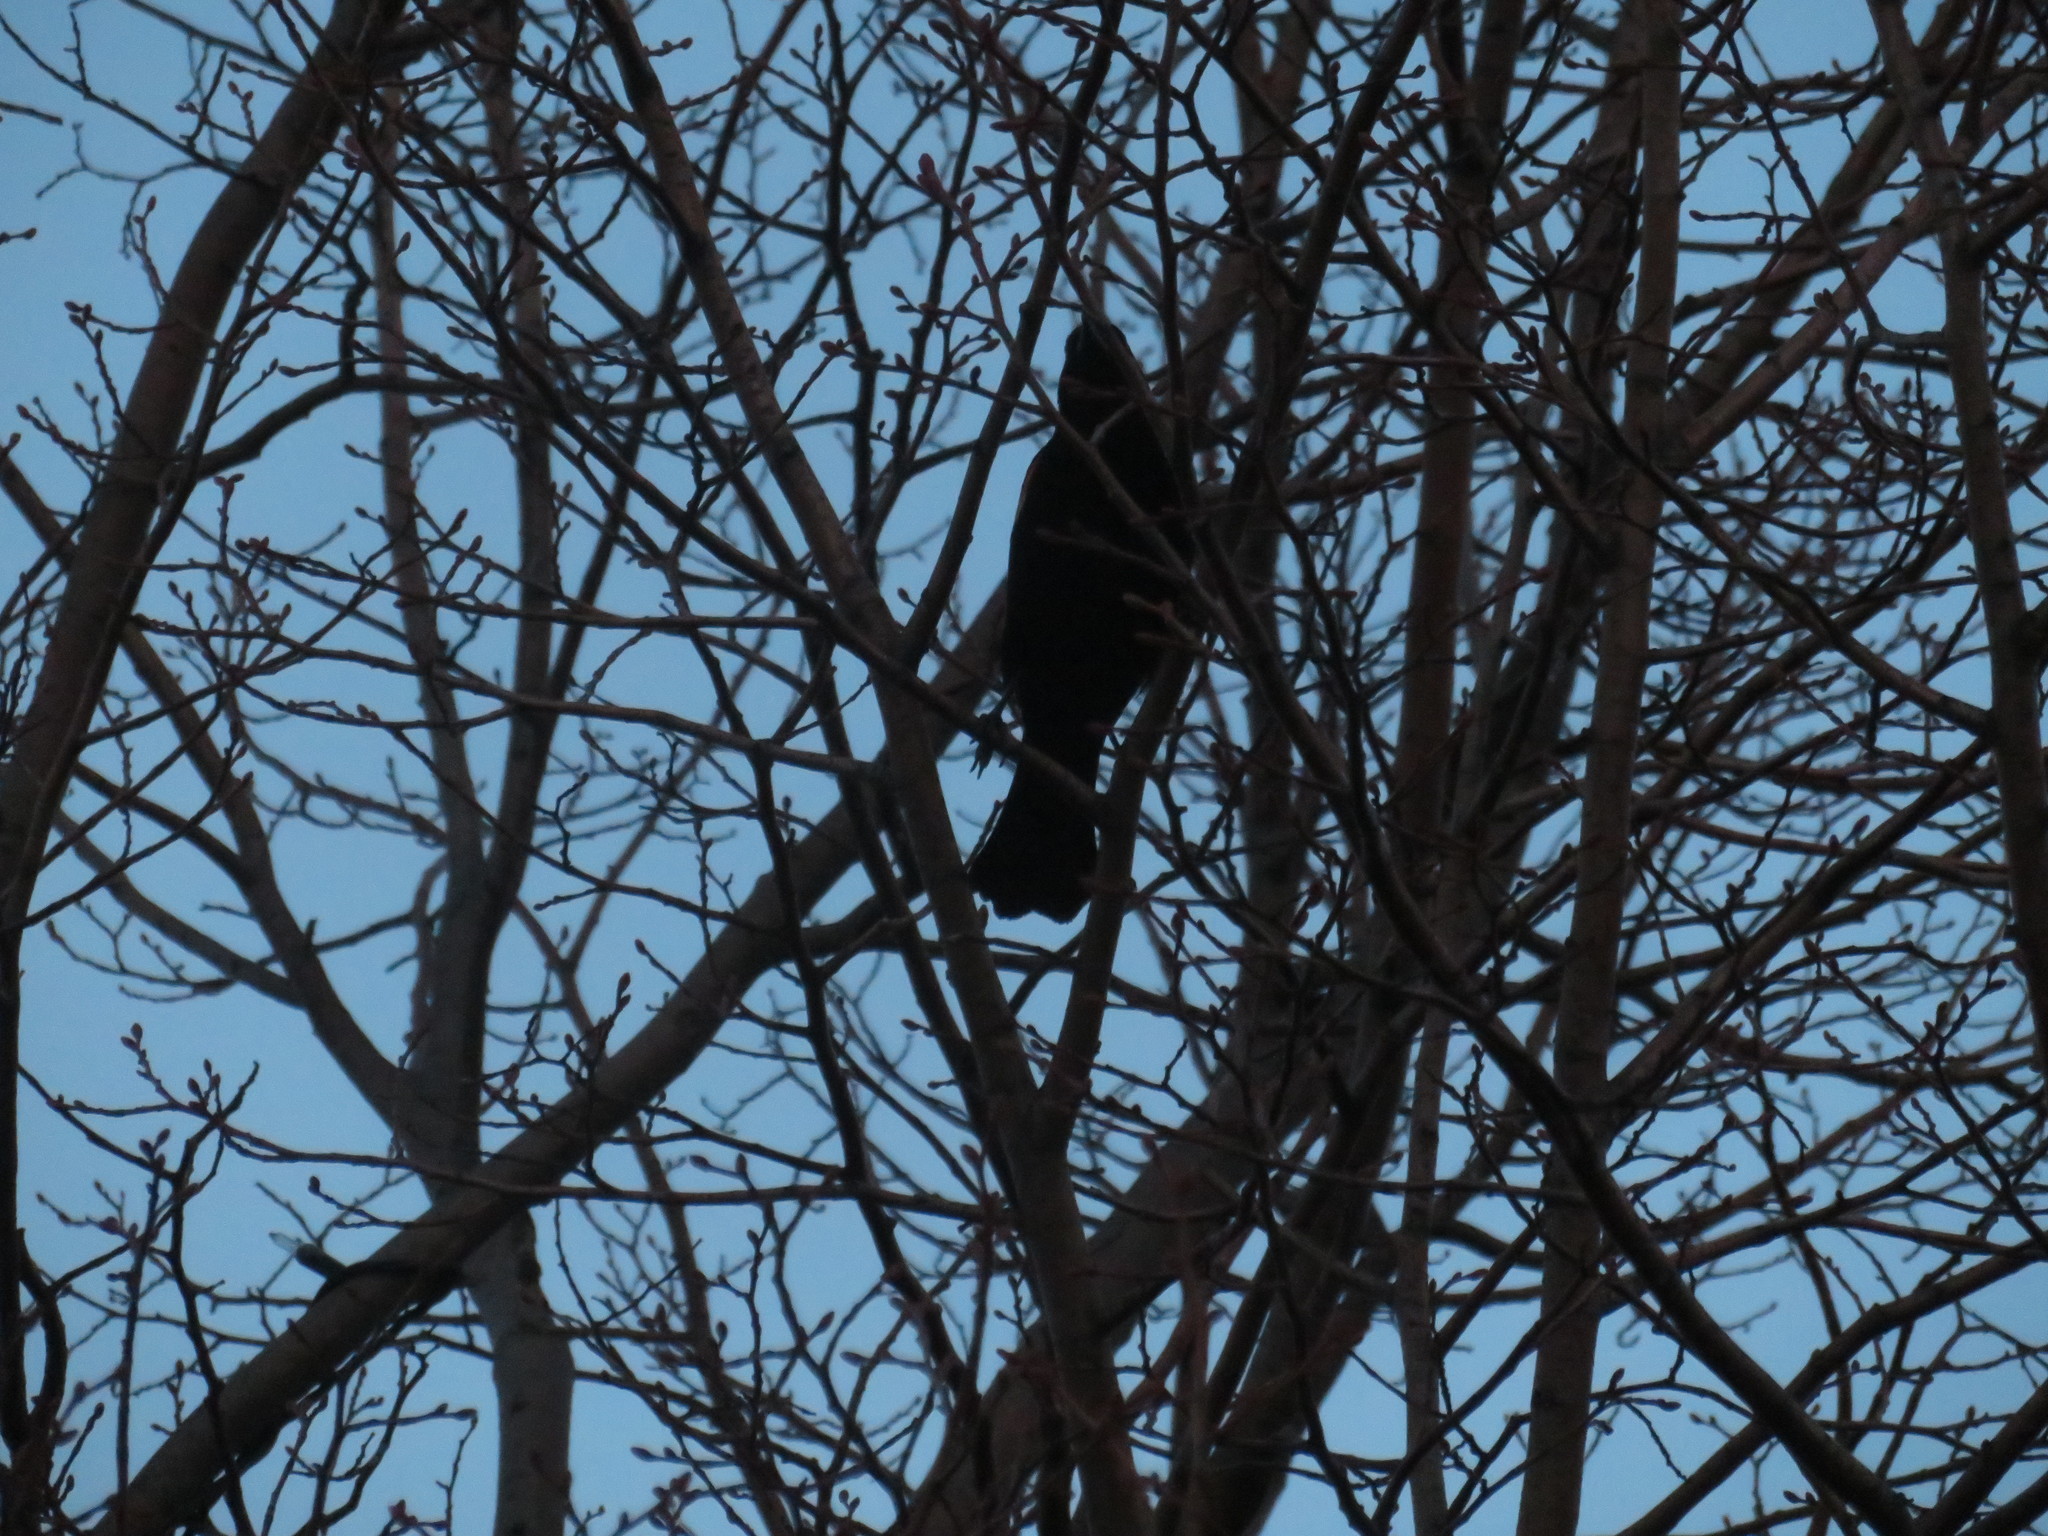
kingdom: Animalia
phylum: Chordata
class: Aves
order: Passeriformes
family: Icteridae
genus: Agelaius
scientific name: Agelaius phoeniceus
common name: Red-winged blackbird
